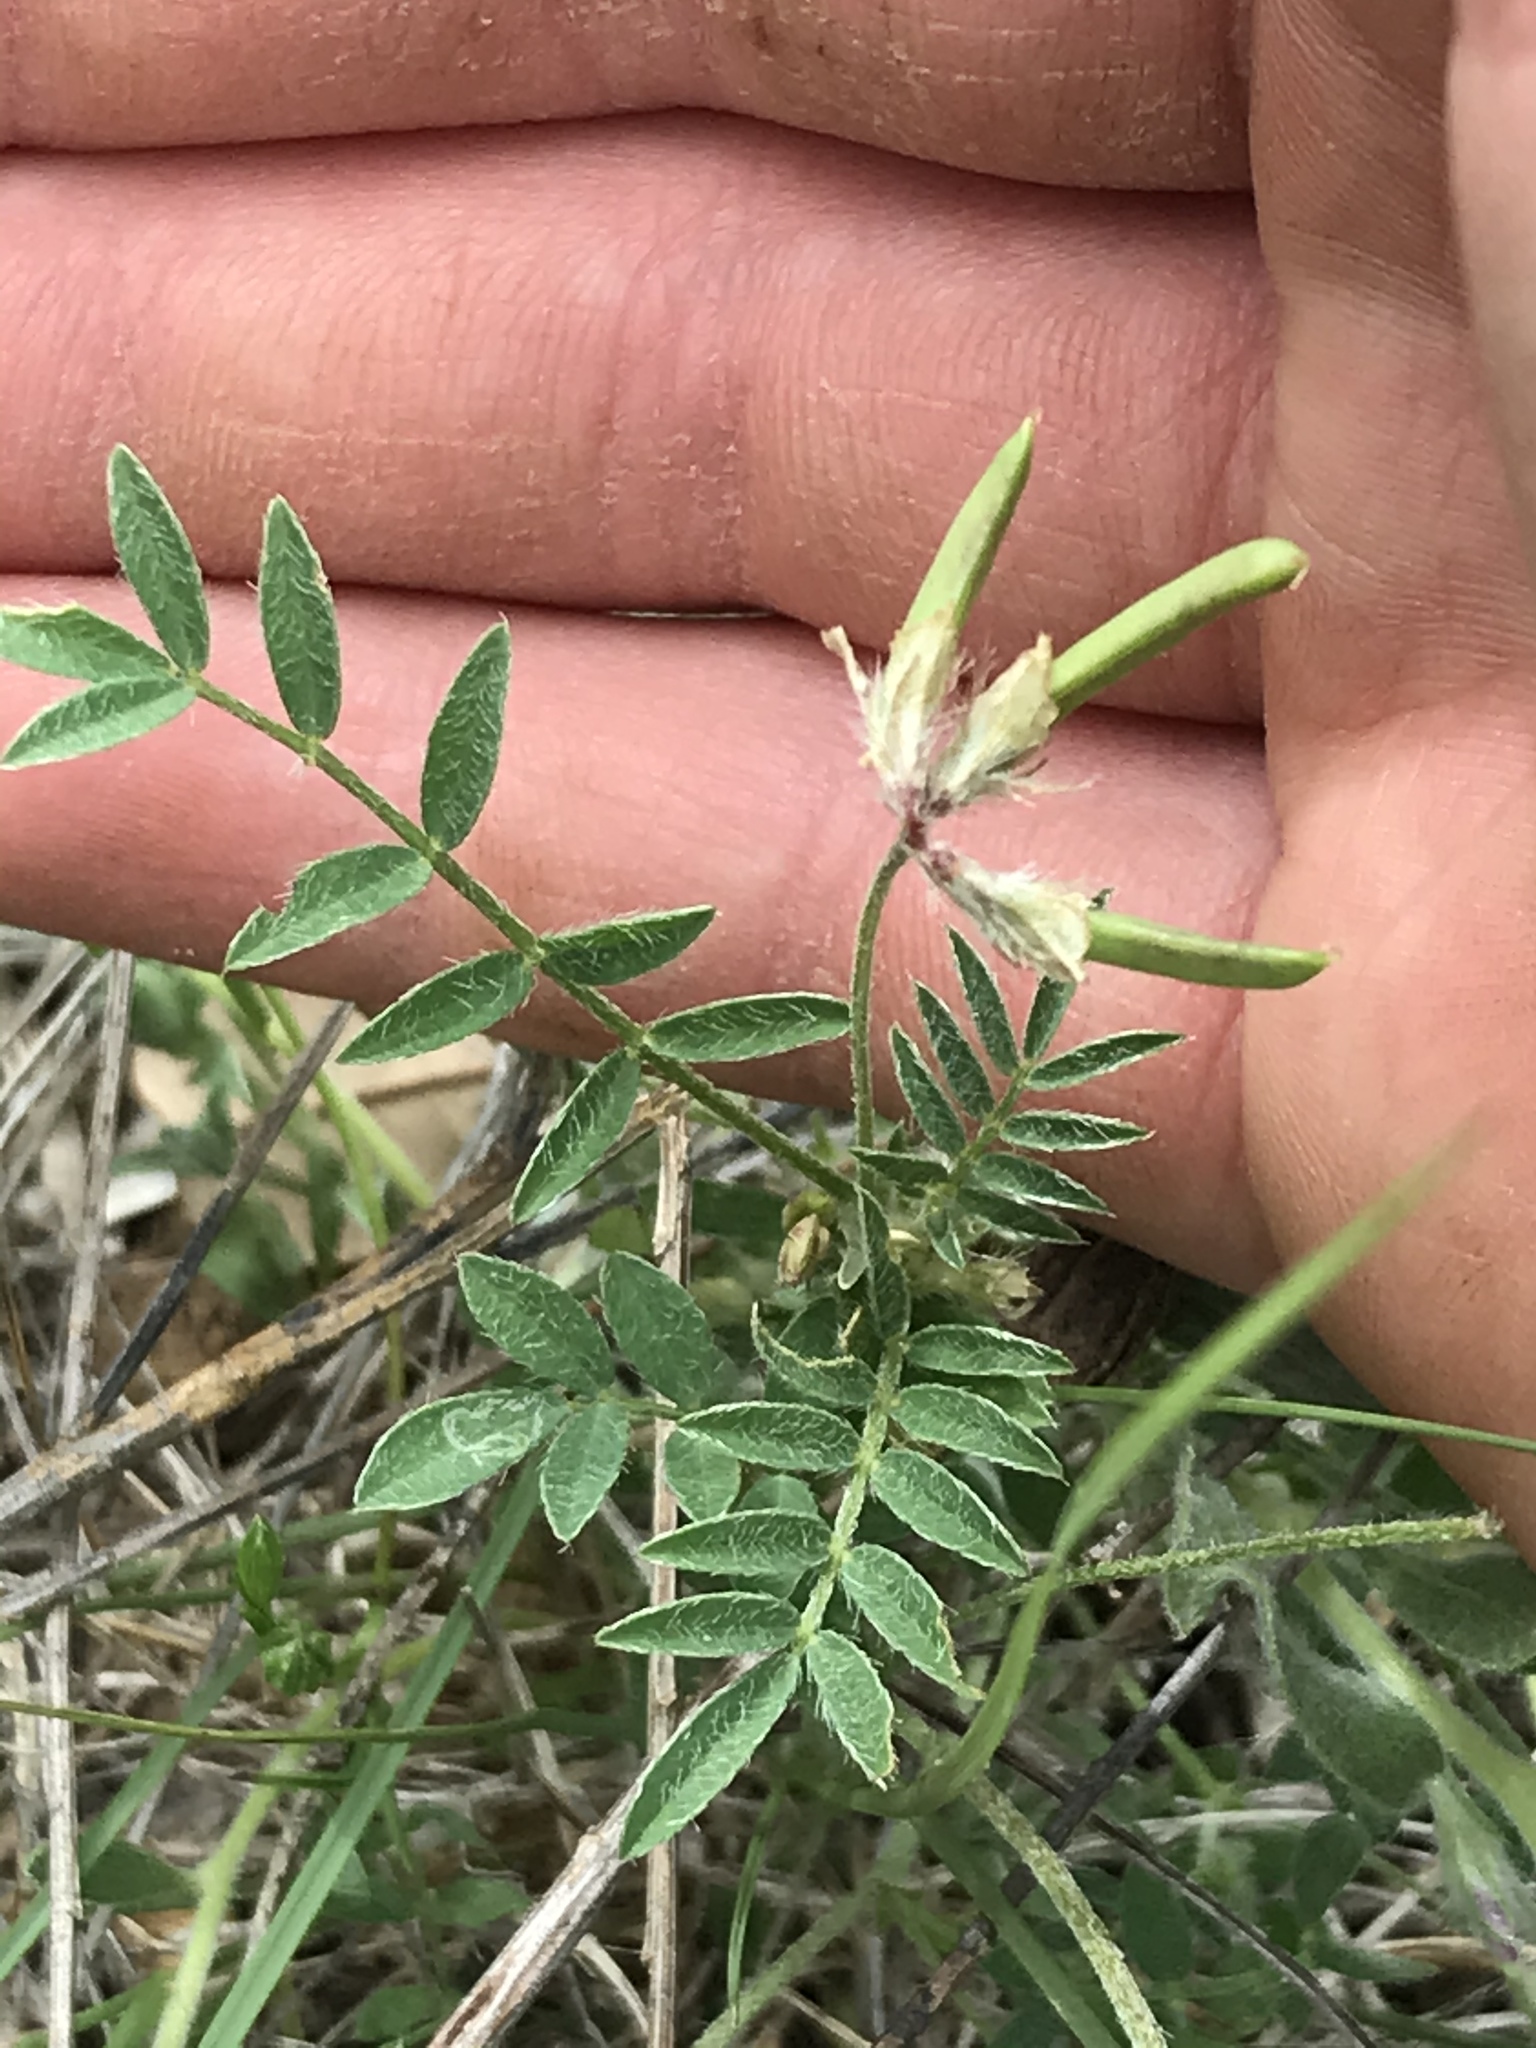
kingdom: Plantae
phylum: Tracheophyta
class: Magnoliopsida
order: Fabales
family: Fabaceae
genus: Astragalus
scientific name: Astragalus nuttallianus
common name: Smallflowered milkvetch
